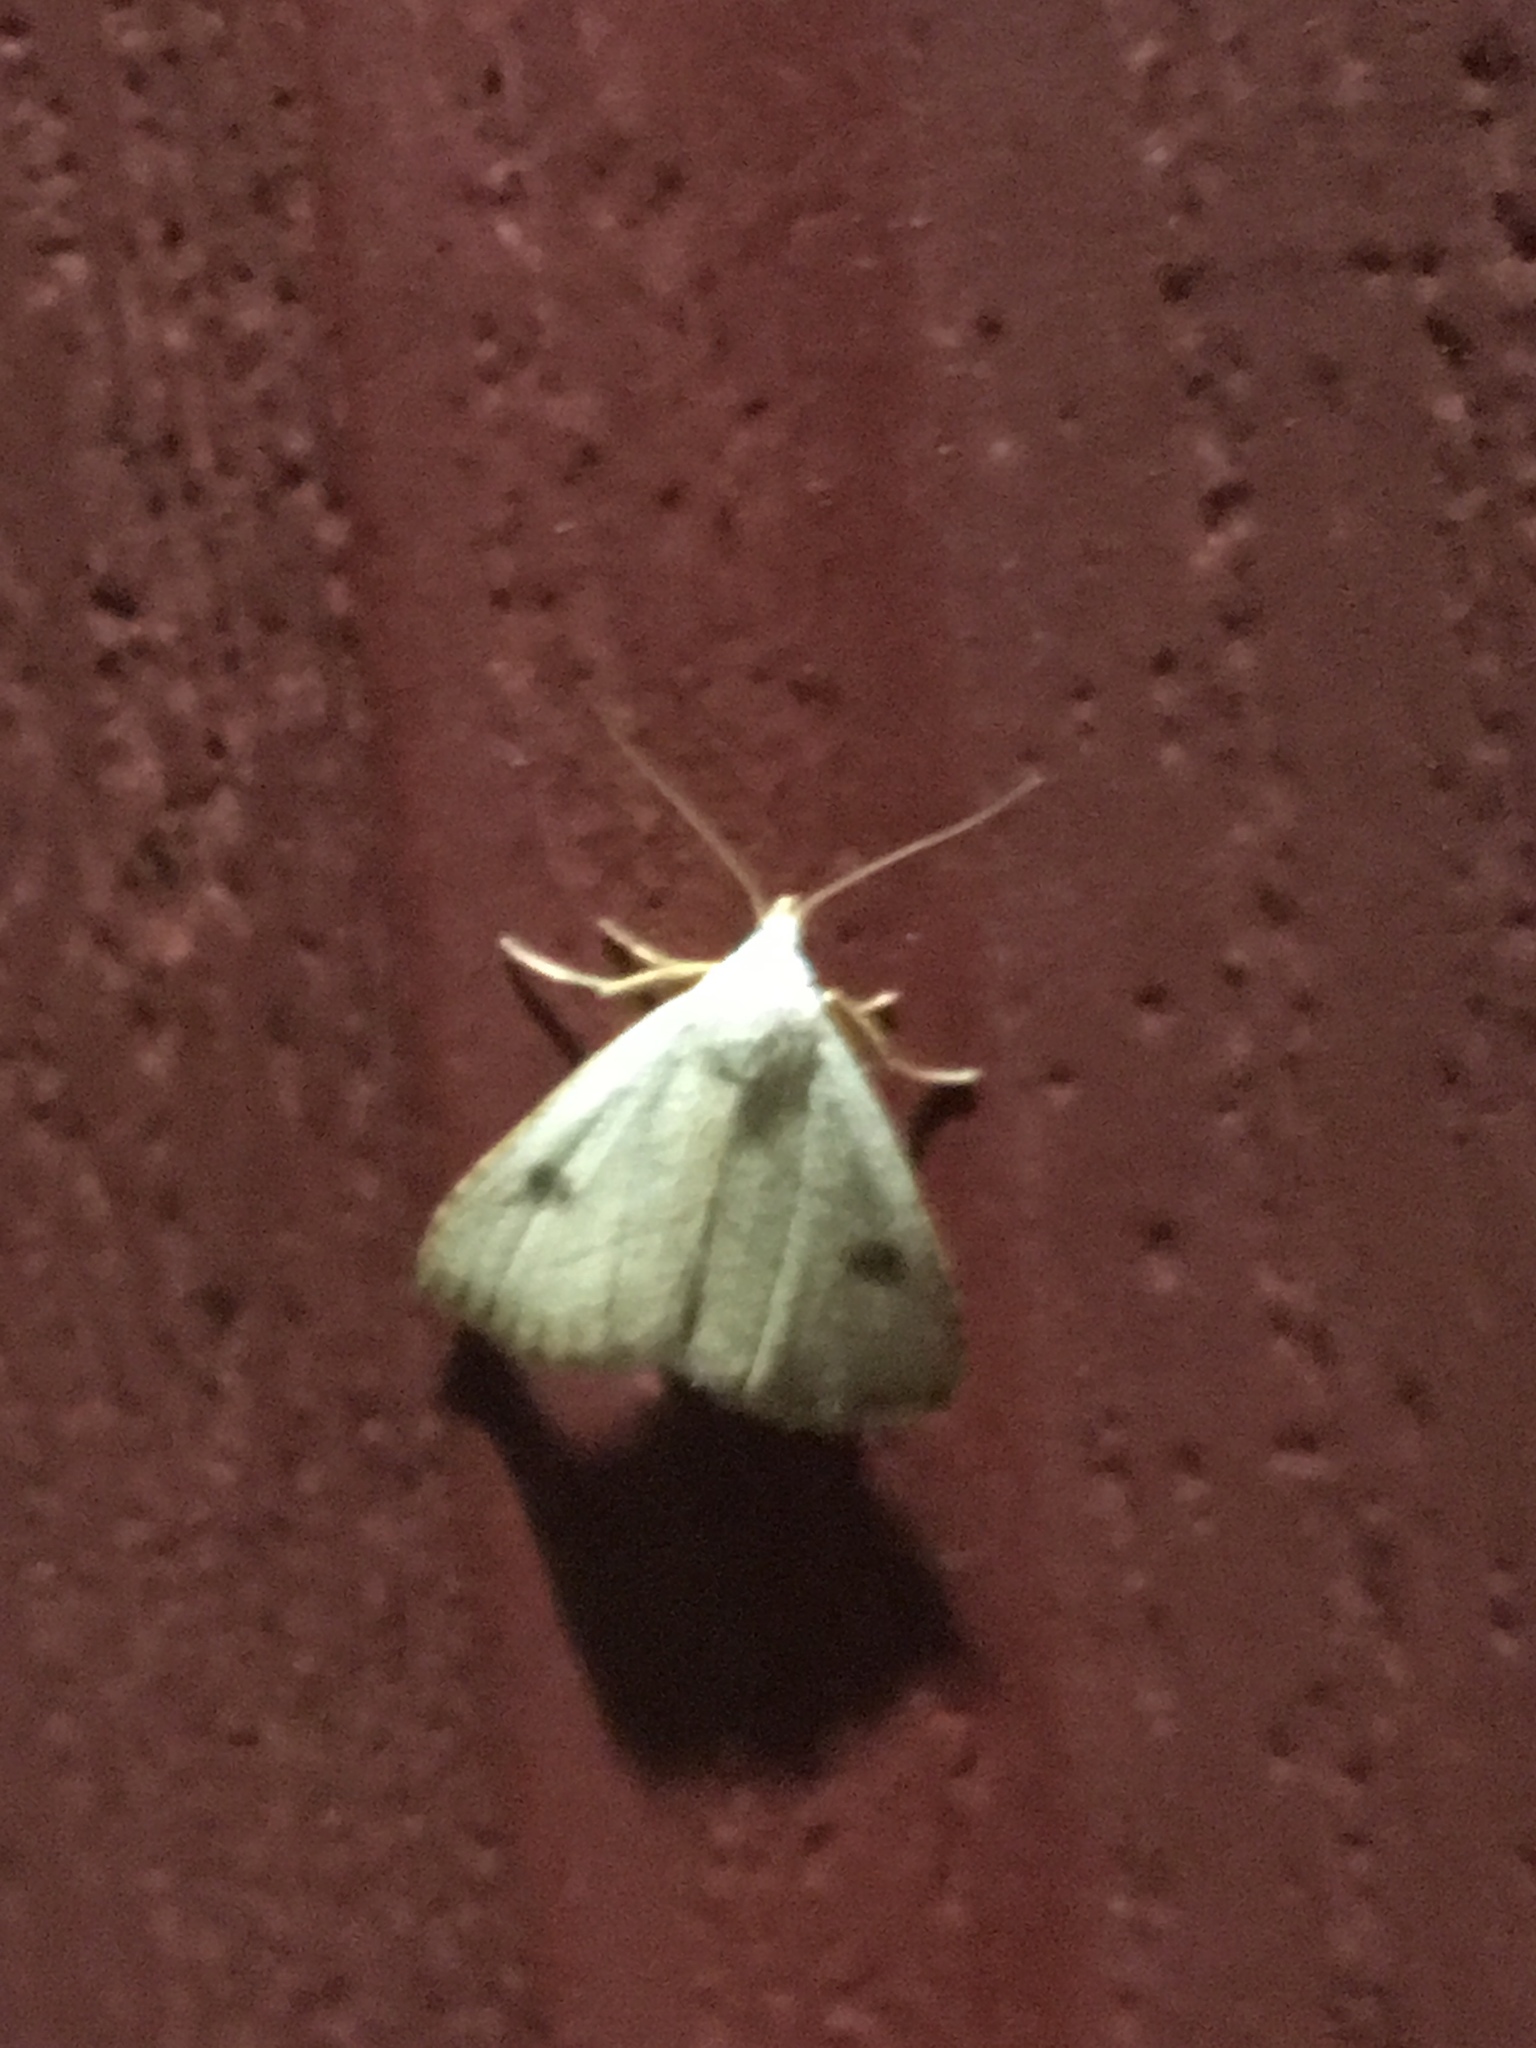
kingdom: Animalia
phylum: Arthropoda
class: Insecta
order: Lepidoptera
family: Erebidae
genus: Rivula
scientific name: Rivula propinqualis
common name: Spotted grass moth
